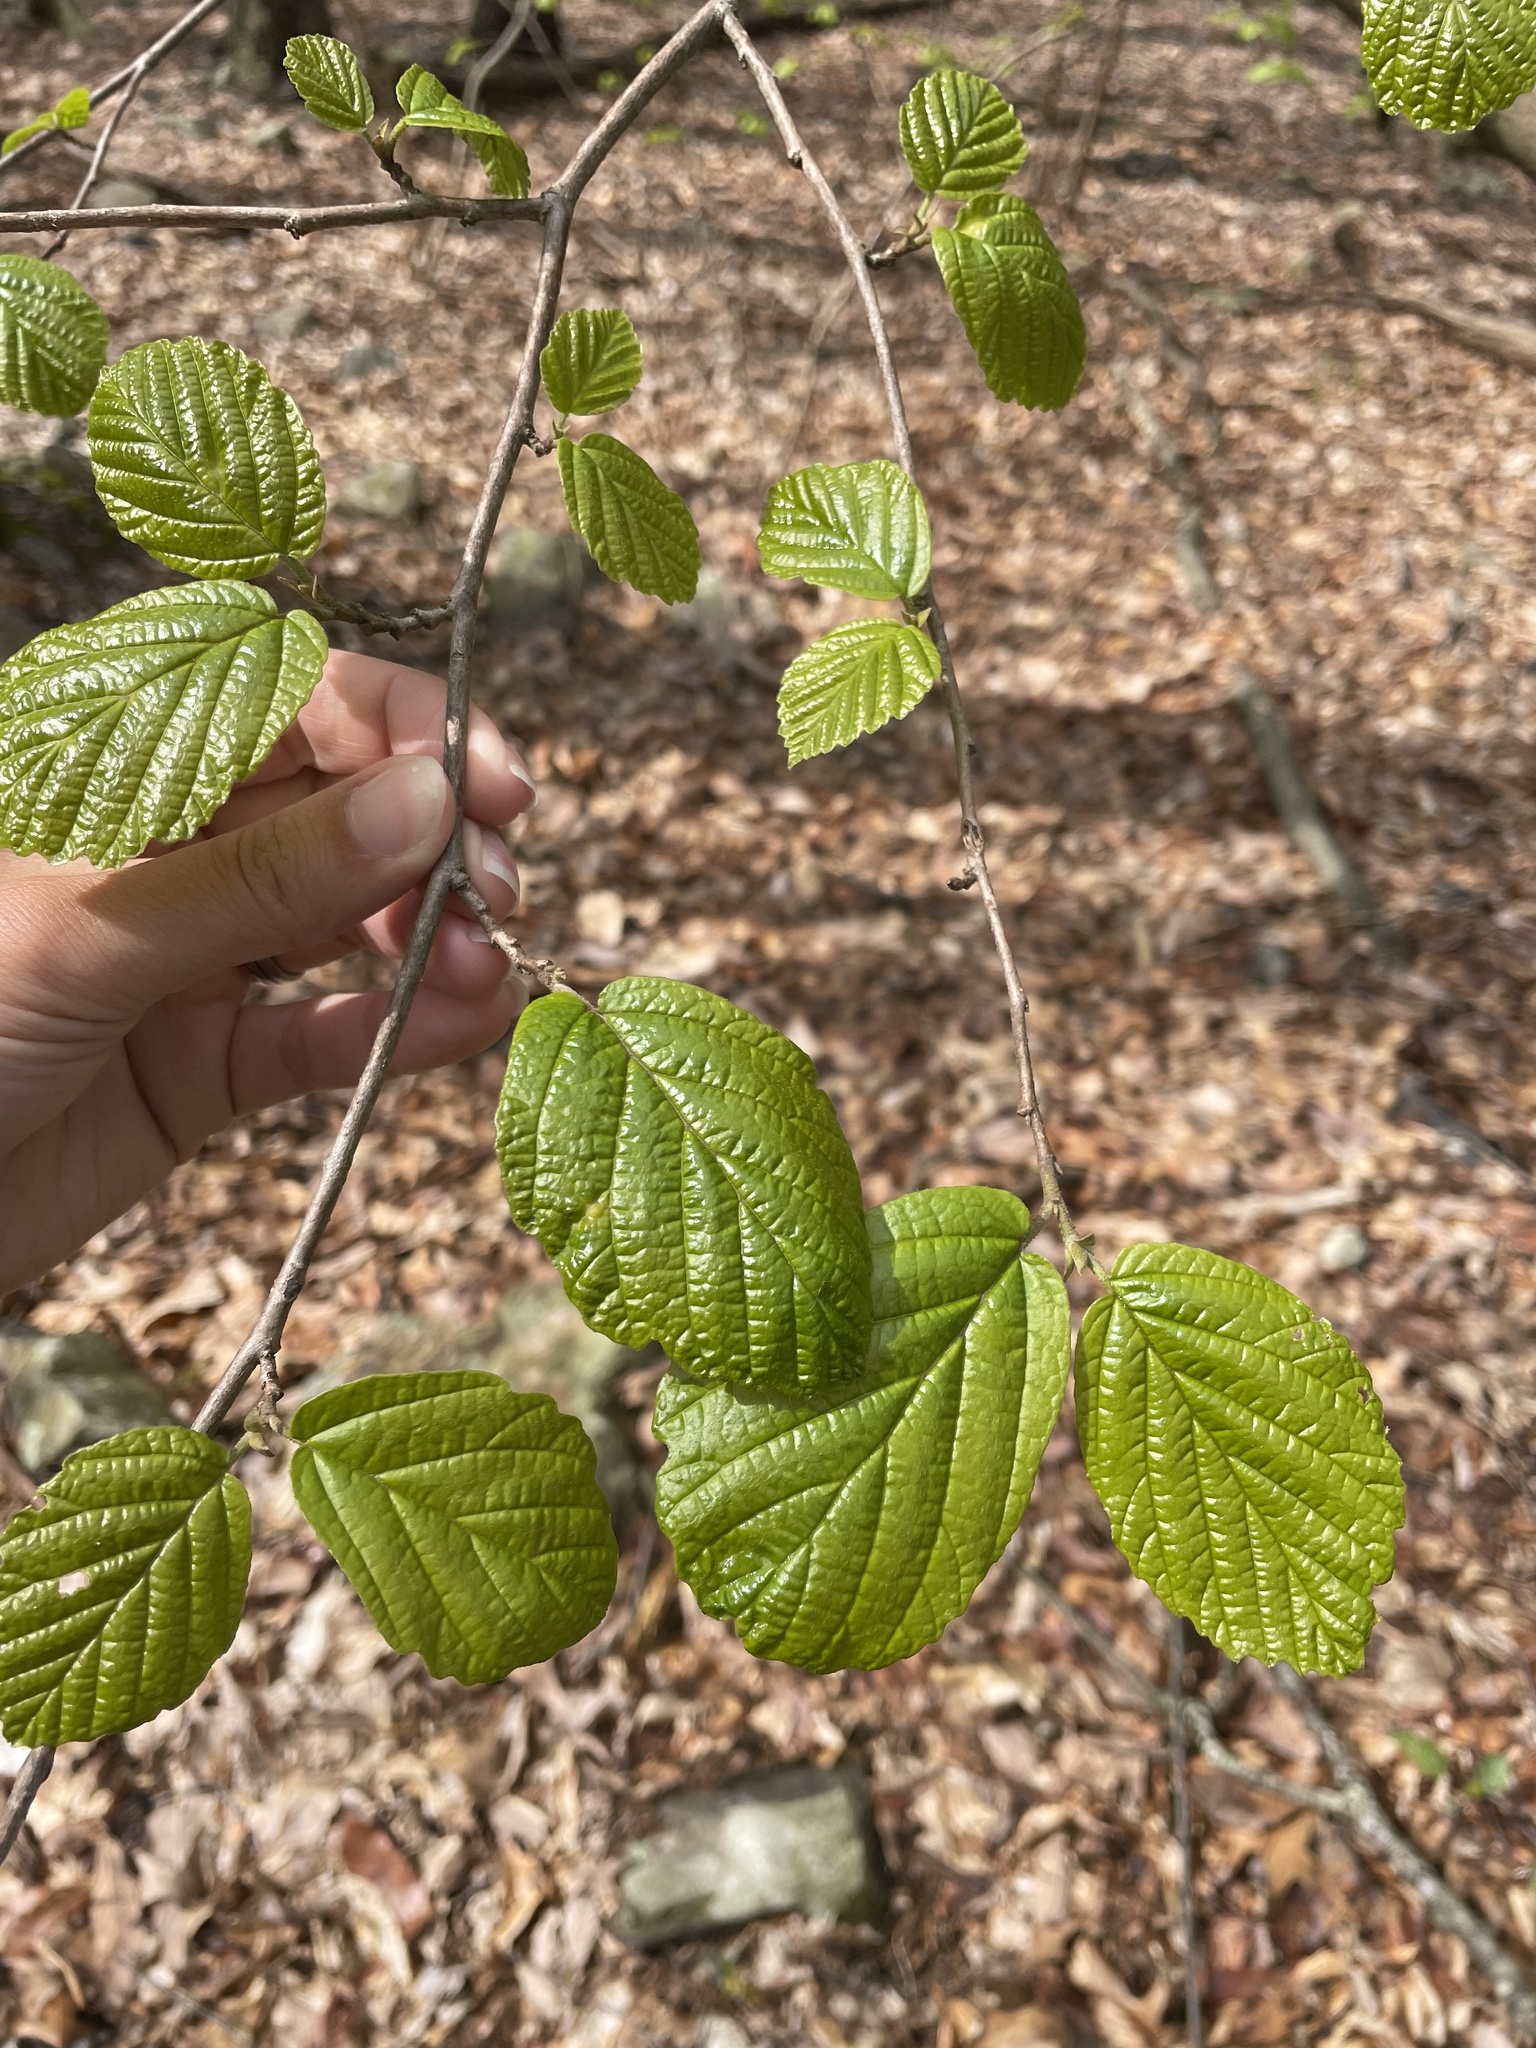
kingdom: Plantae
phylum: Tracheophyta
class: Magnoliopsida
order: Saxifragales
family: Hamamelidaceae
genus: Hamamelis
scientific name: Hamamelis virginiana
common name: Witch-hazel
